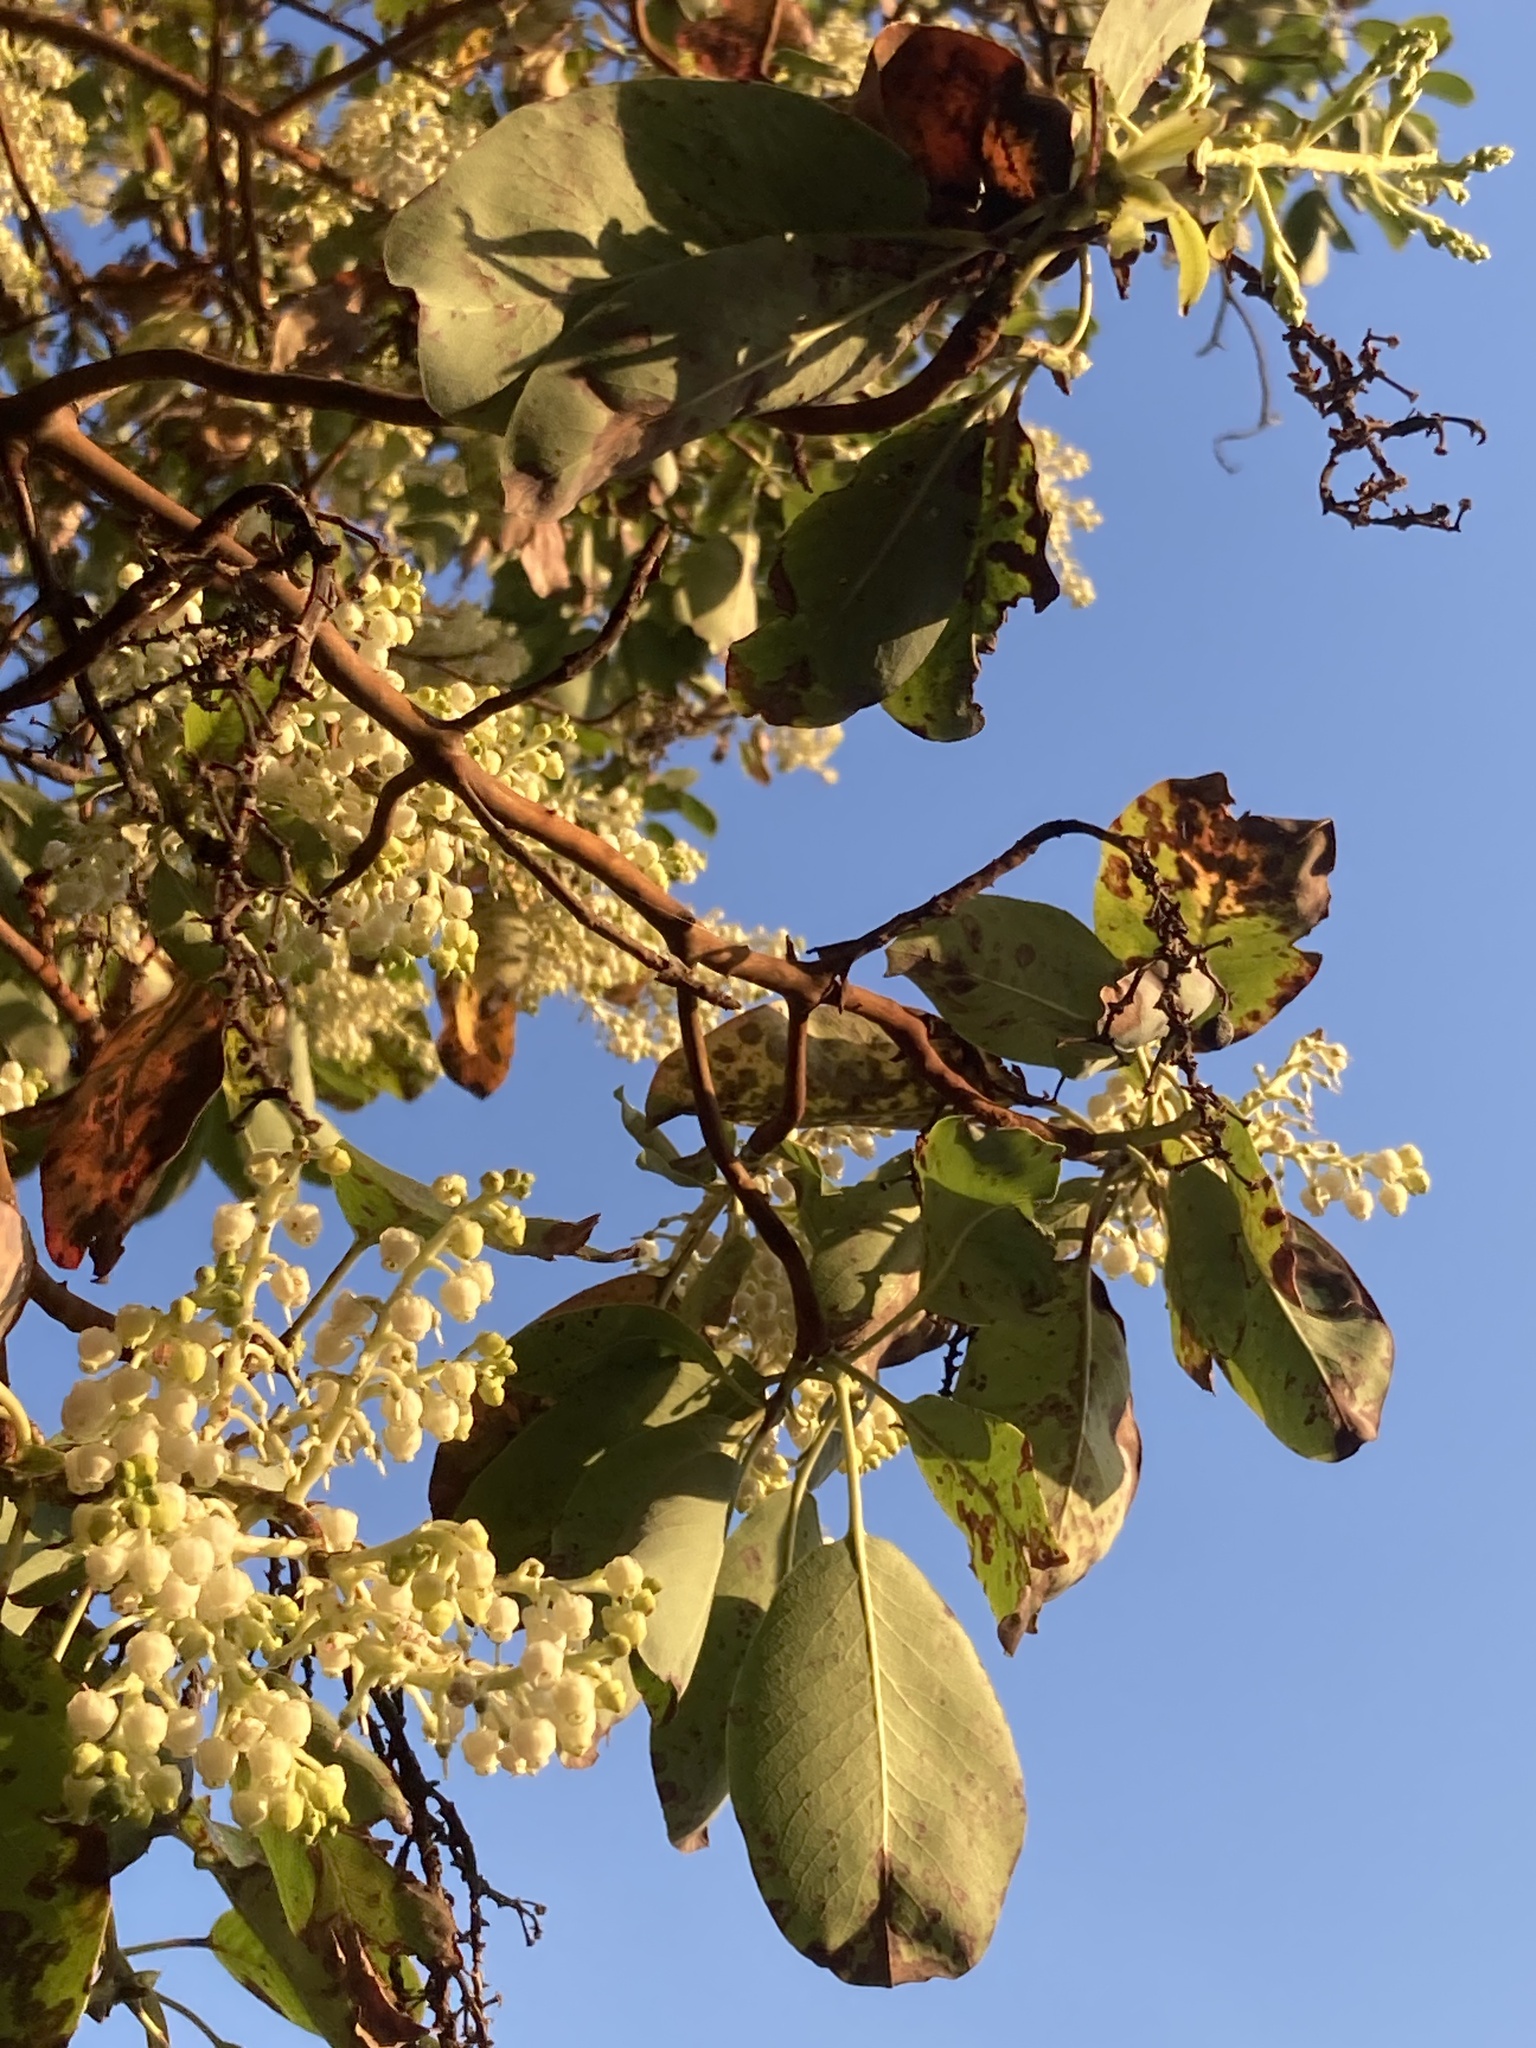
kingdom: Plantae
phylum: Tracheophyta
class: Magnoliopsida
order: Ericales
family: Ericaceae
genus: Arbutus
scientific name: Arbutus menziesii
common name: Pacific madrone
